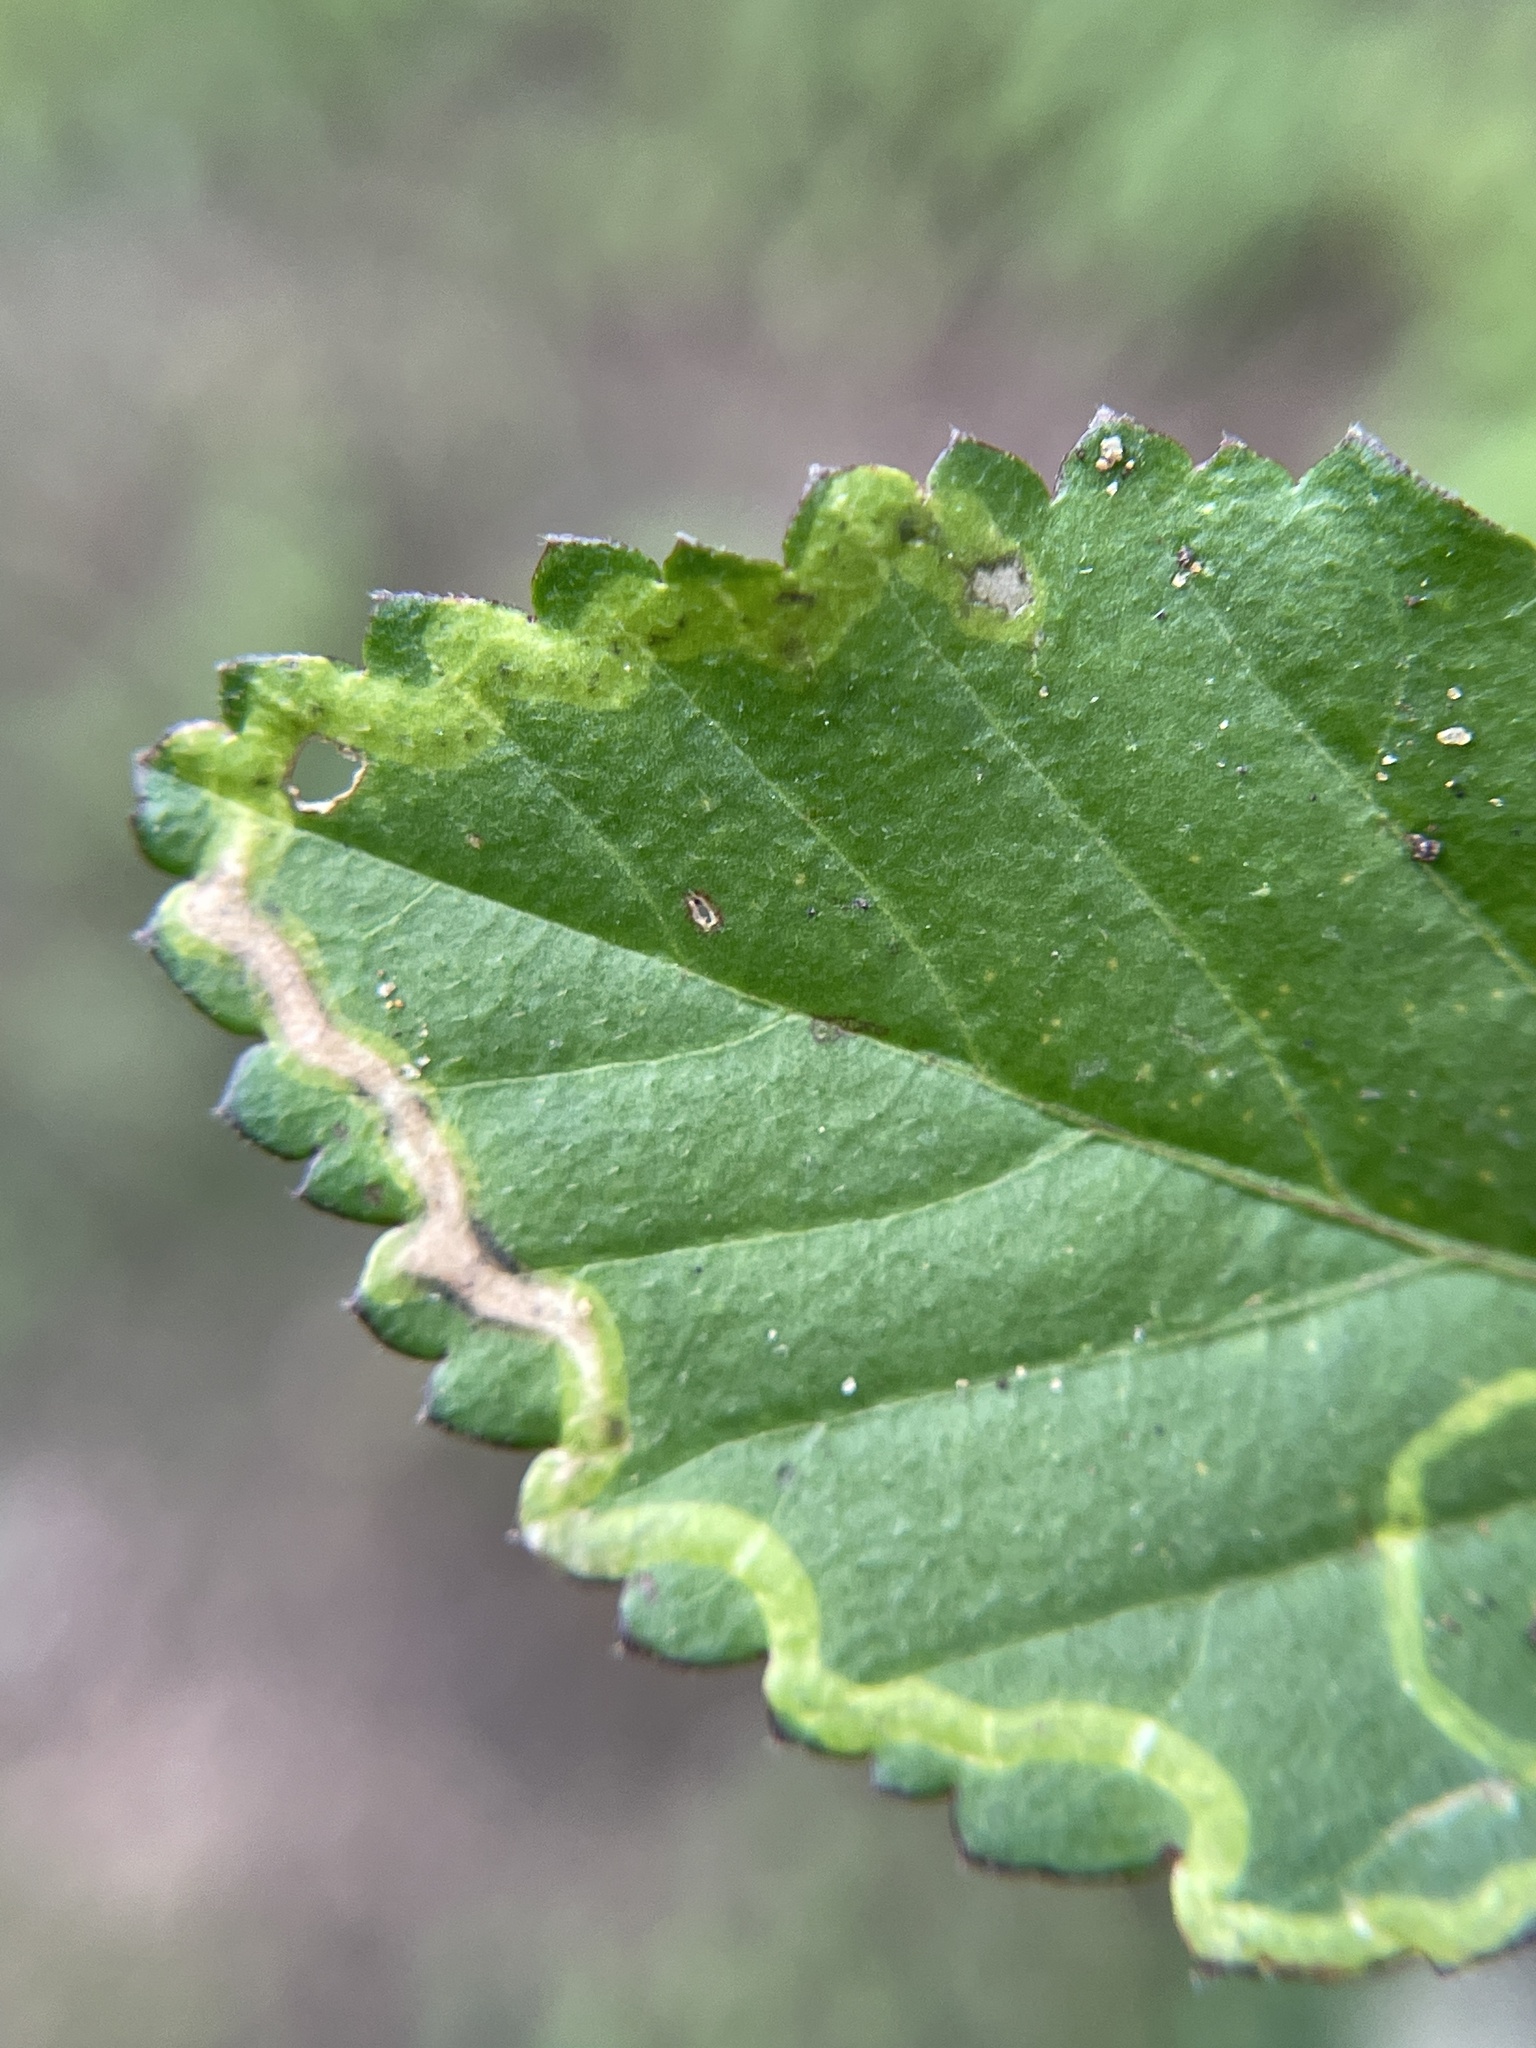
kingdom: Animalia
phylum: Arthropoda
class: Insecta
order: Diptera
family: Agromyzidae
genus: Calycomyza
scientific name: Calycomyza malvae
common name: Mallow leaf miner
